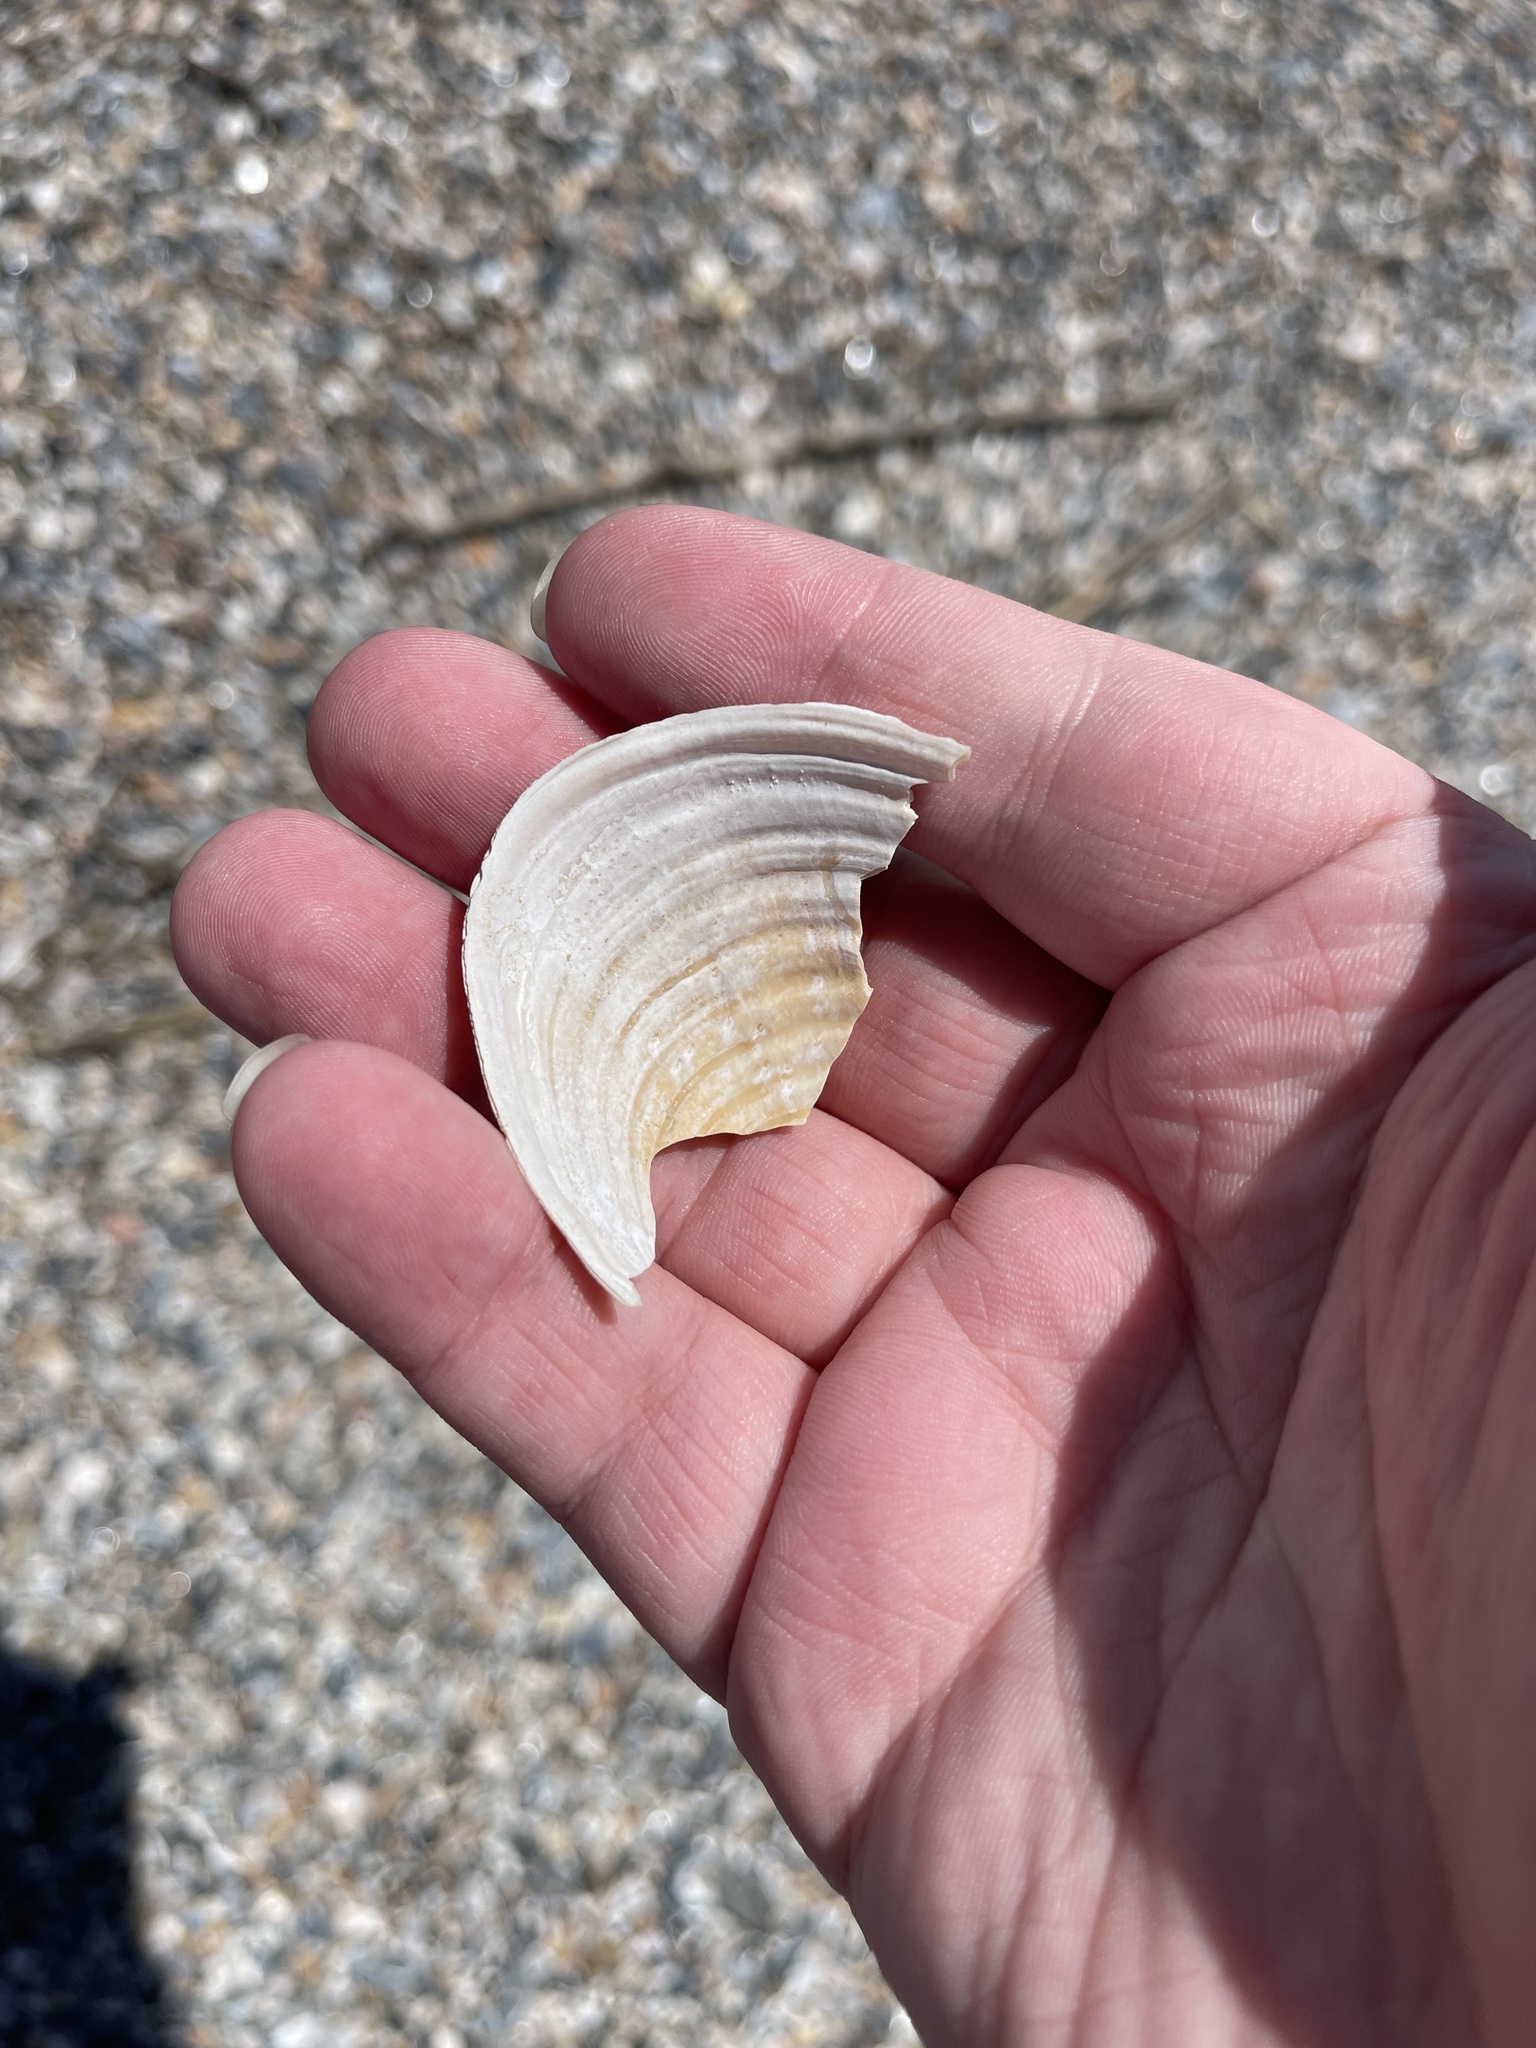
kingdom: Animalia
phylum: Mollusca
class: Bivalvia
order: Venerida
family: Anatinellidae
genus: Raeta
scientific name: Raeta plicatella
